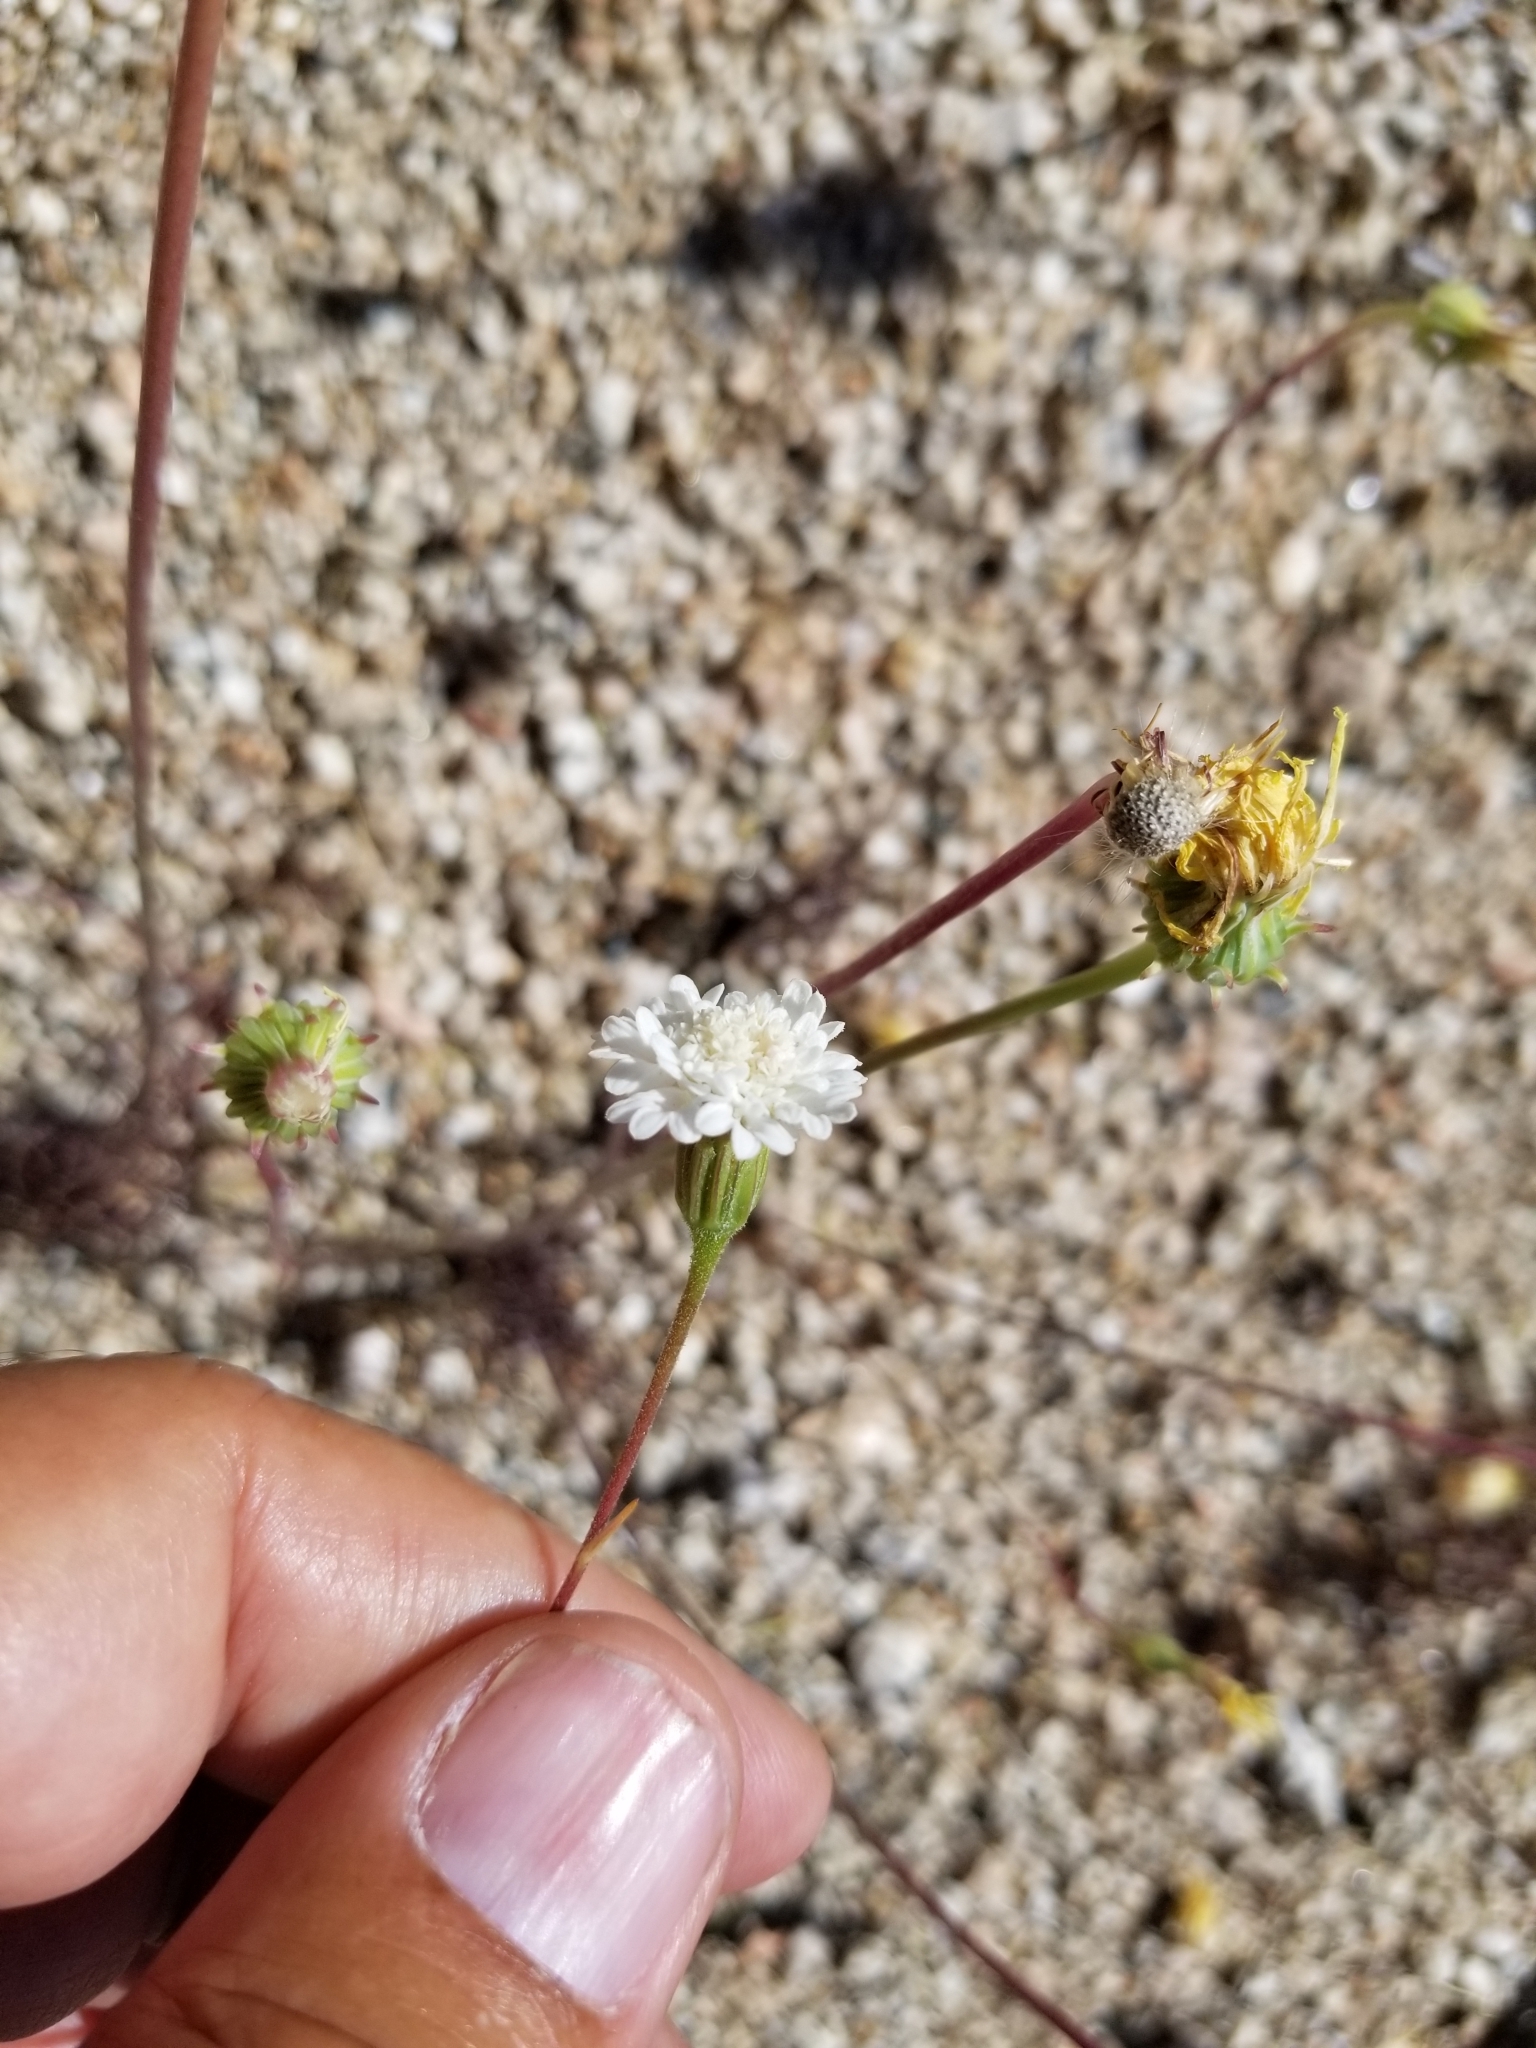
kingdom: Plantae
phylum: Tracheophyta
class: Magnoliopsida
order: Asterales
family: Asteraceae
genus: Chaenactis
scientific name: Chaenactis fremontii
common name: Fremont pincushion
